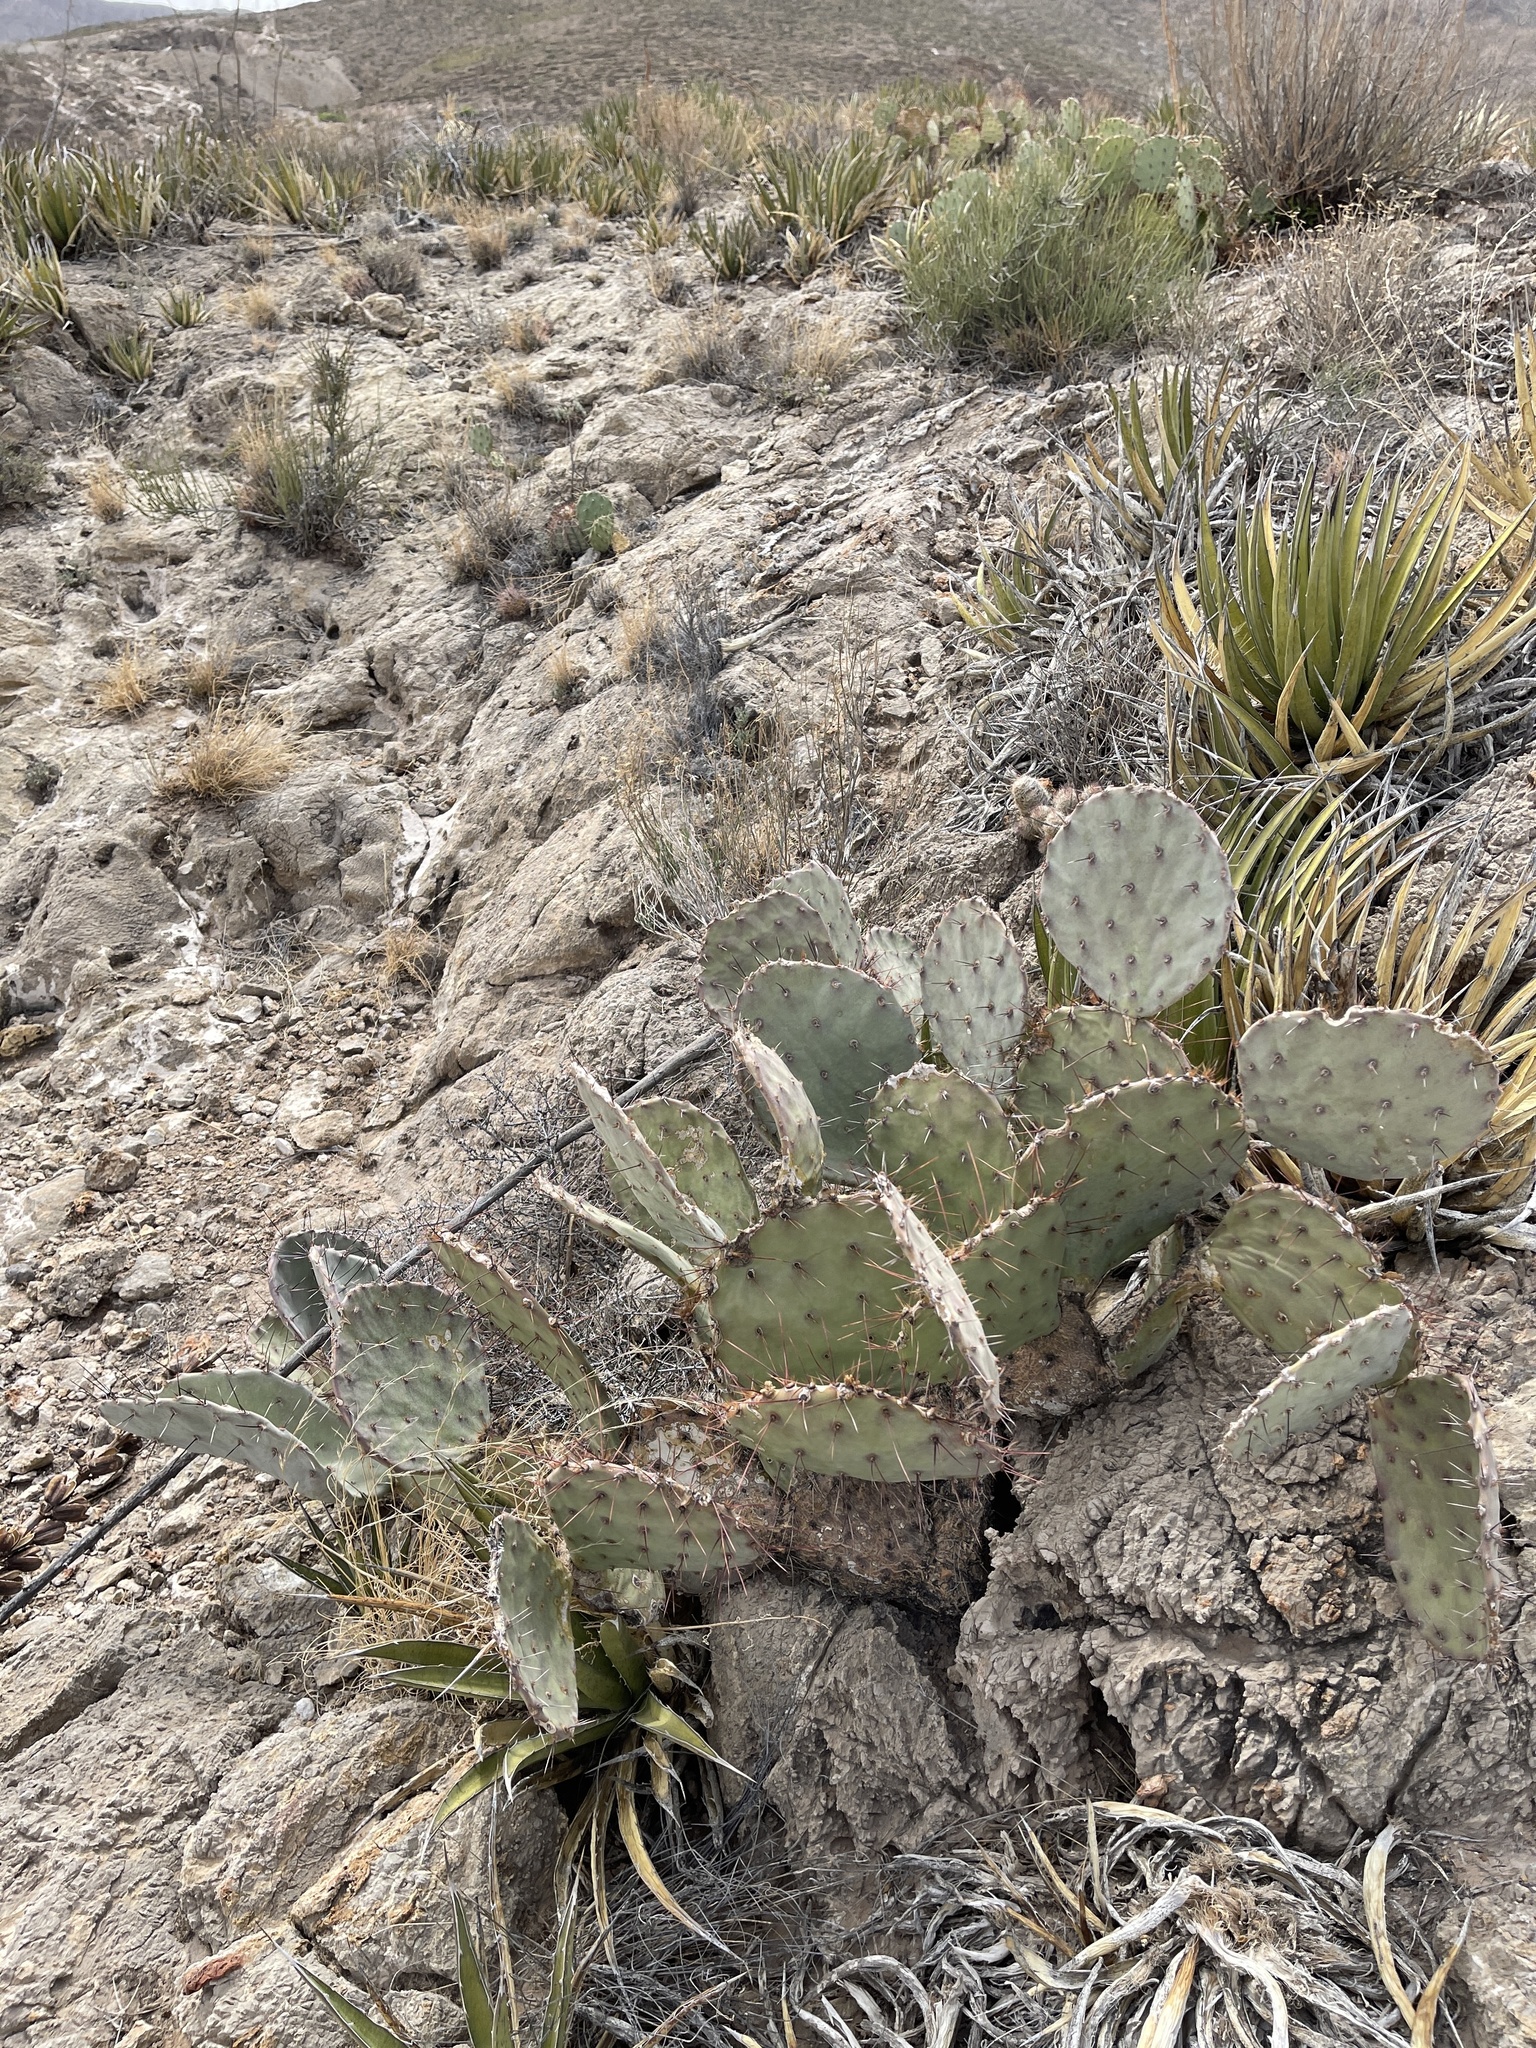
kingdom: Plantae
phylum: Tracheophyta
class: Magnoliopsida
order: Caryophyllales
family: Cactaceae
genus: Opuntia
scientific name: Opuntia engelmannii
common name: Cactus-apple
